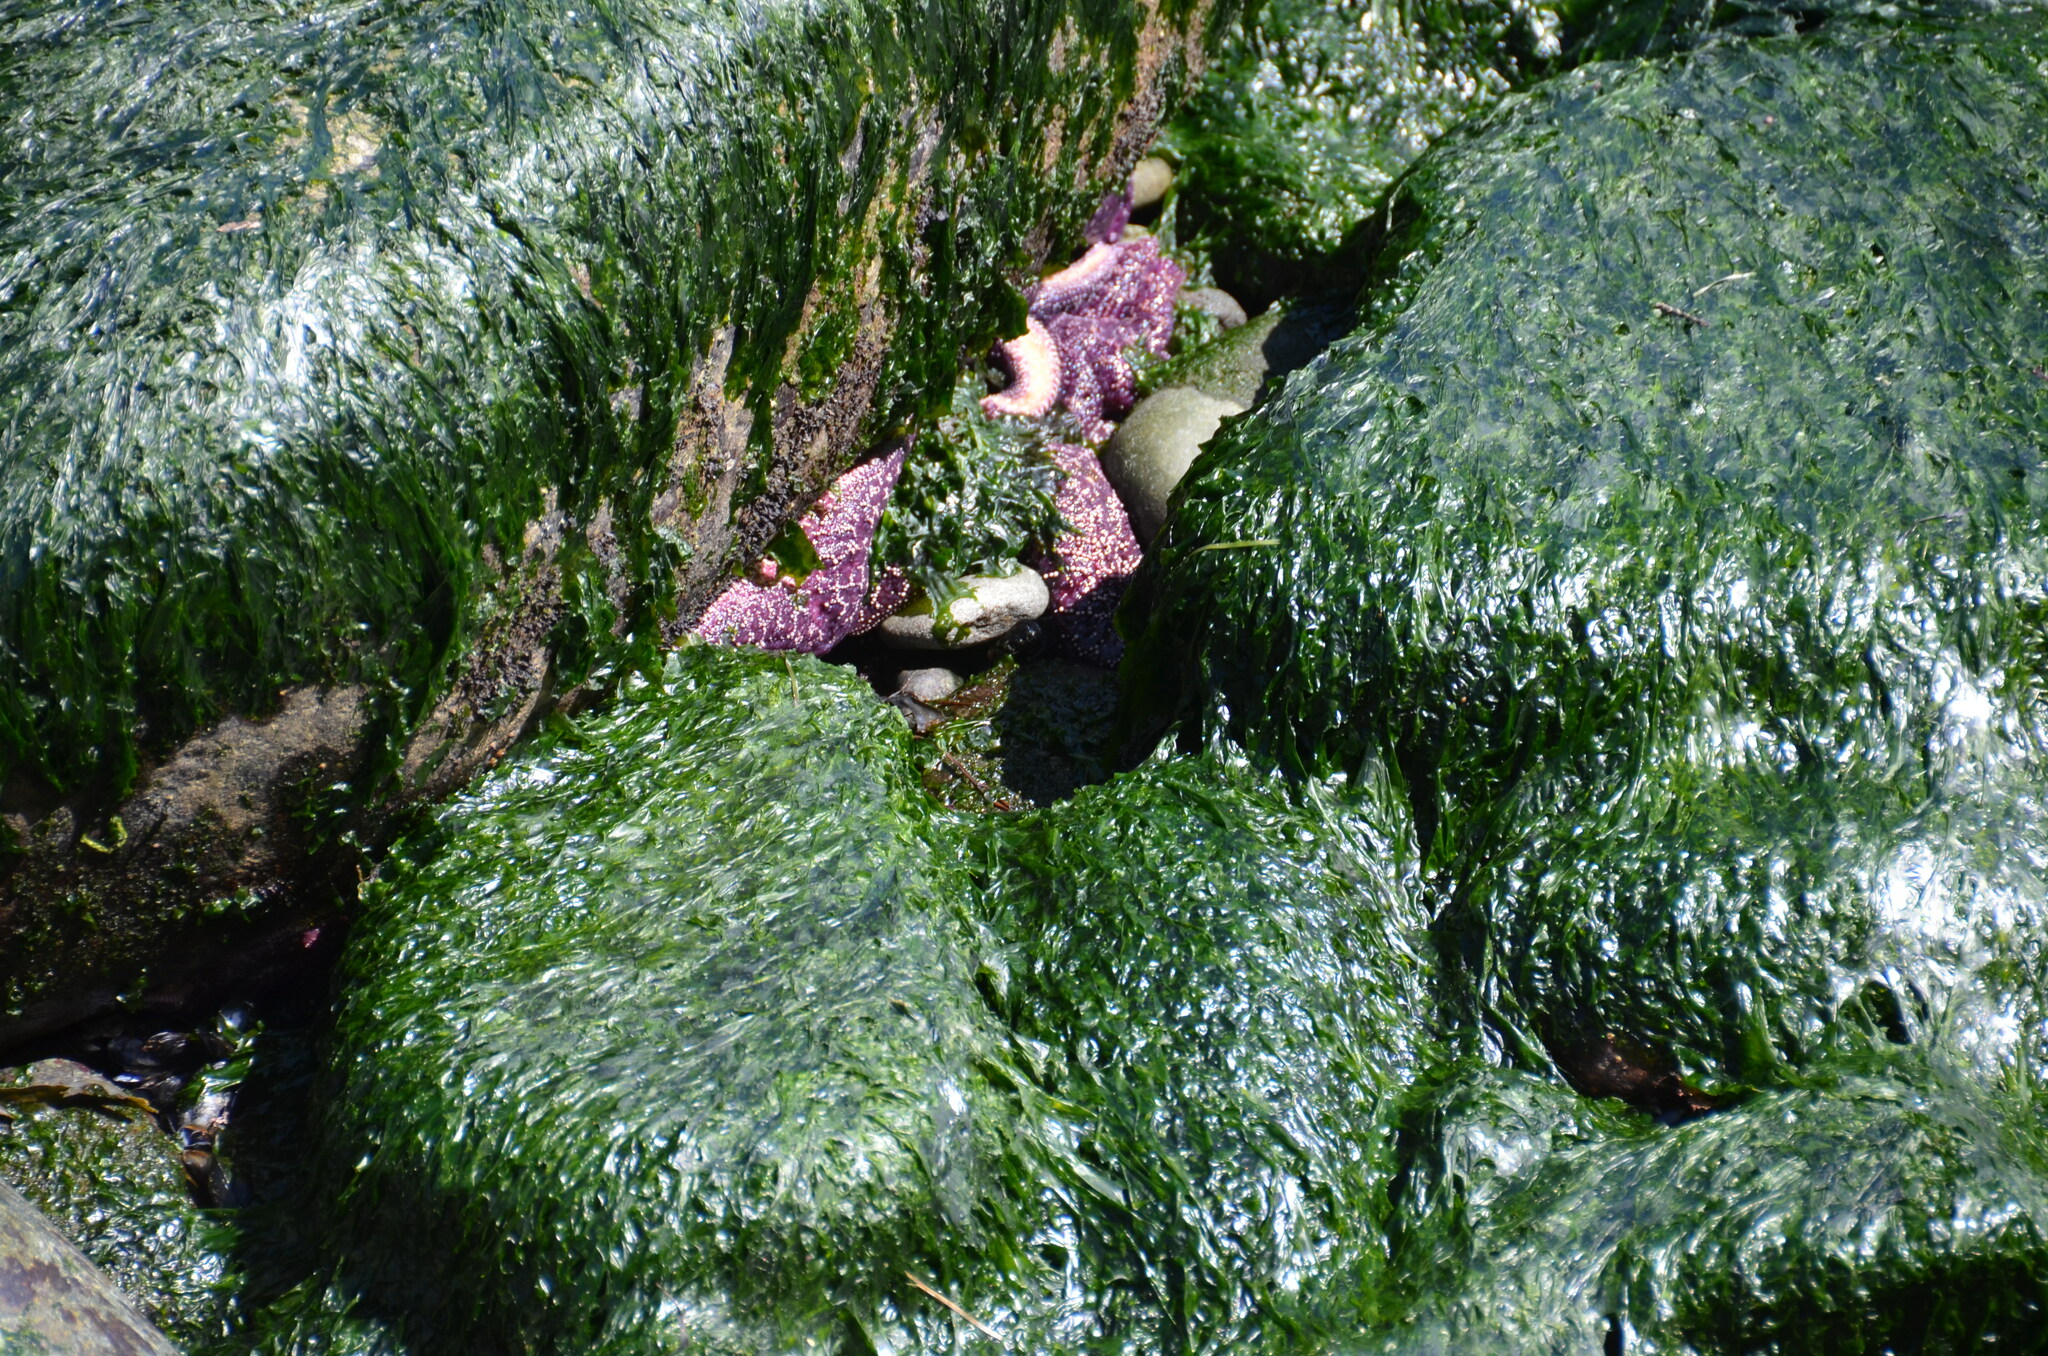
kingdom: Animalia
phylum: Echinodermata
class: Asteroidea
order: Forcipulatida
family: Asteriidae
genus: Pisaster
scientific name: Pisaster ochraceus
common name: Ochre stars
